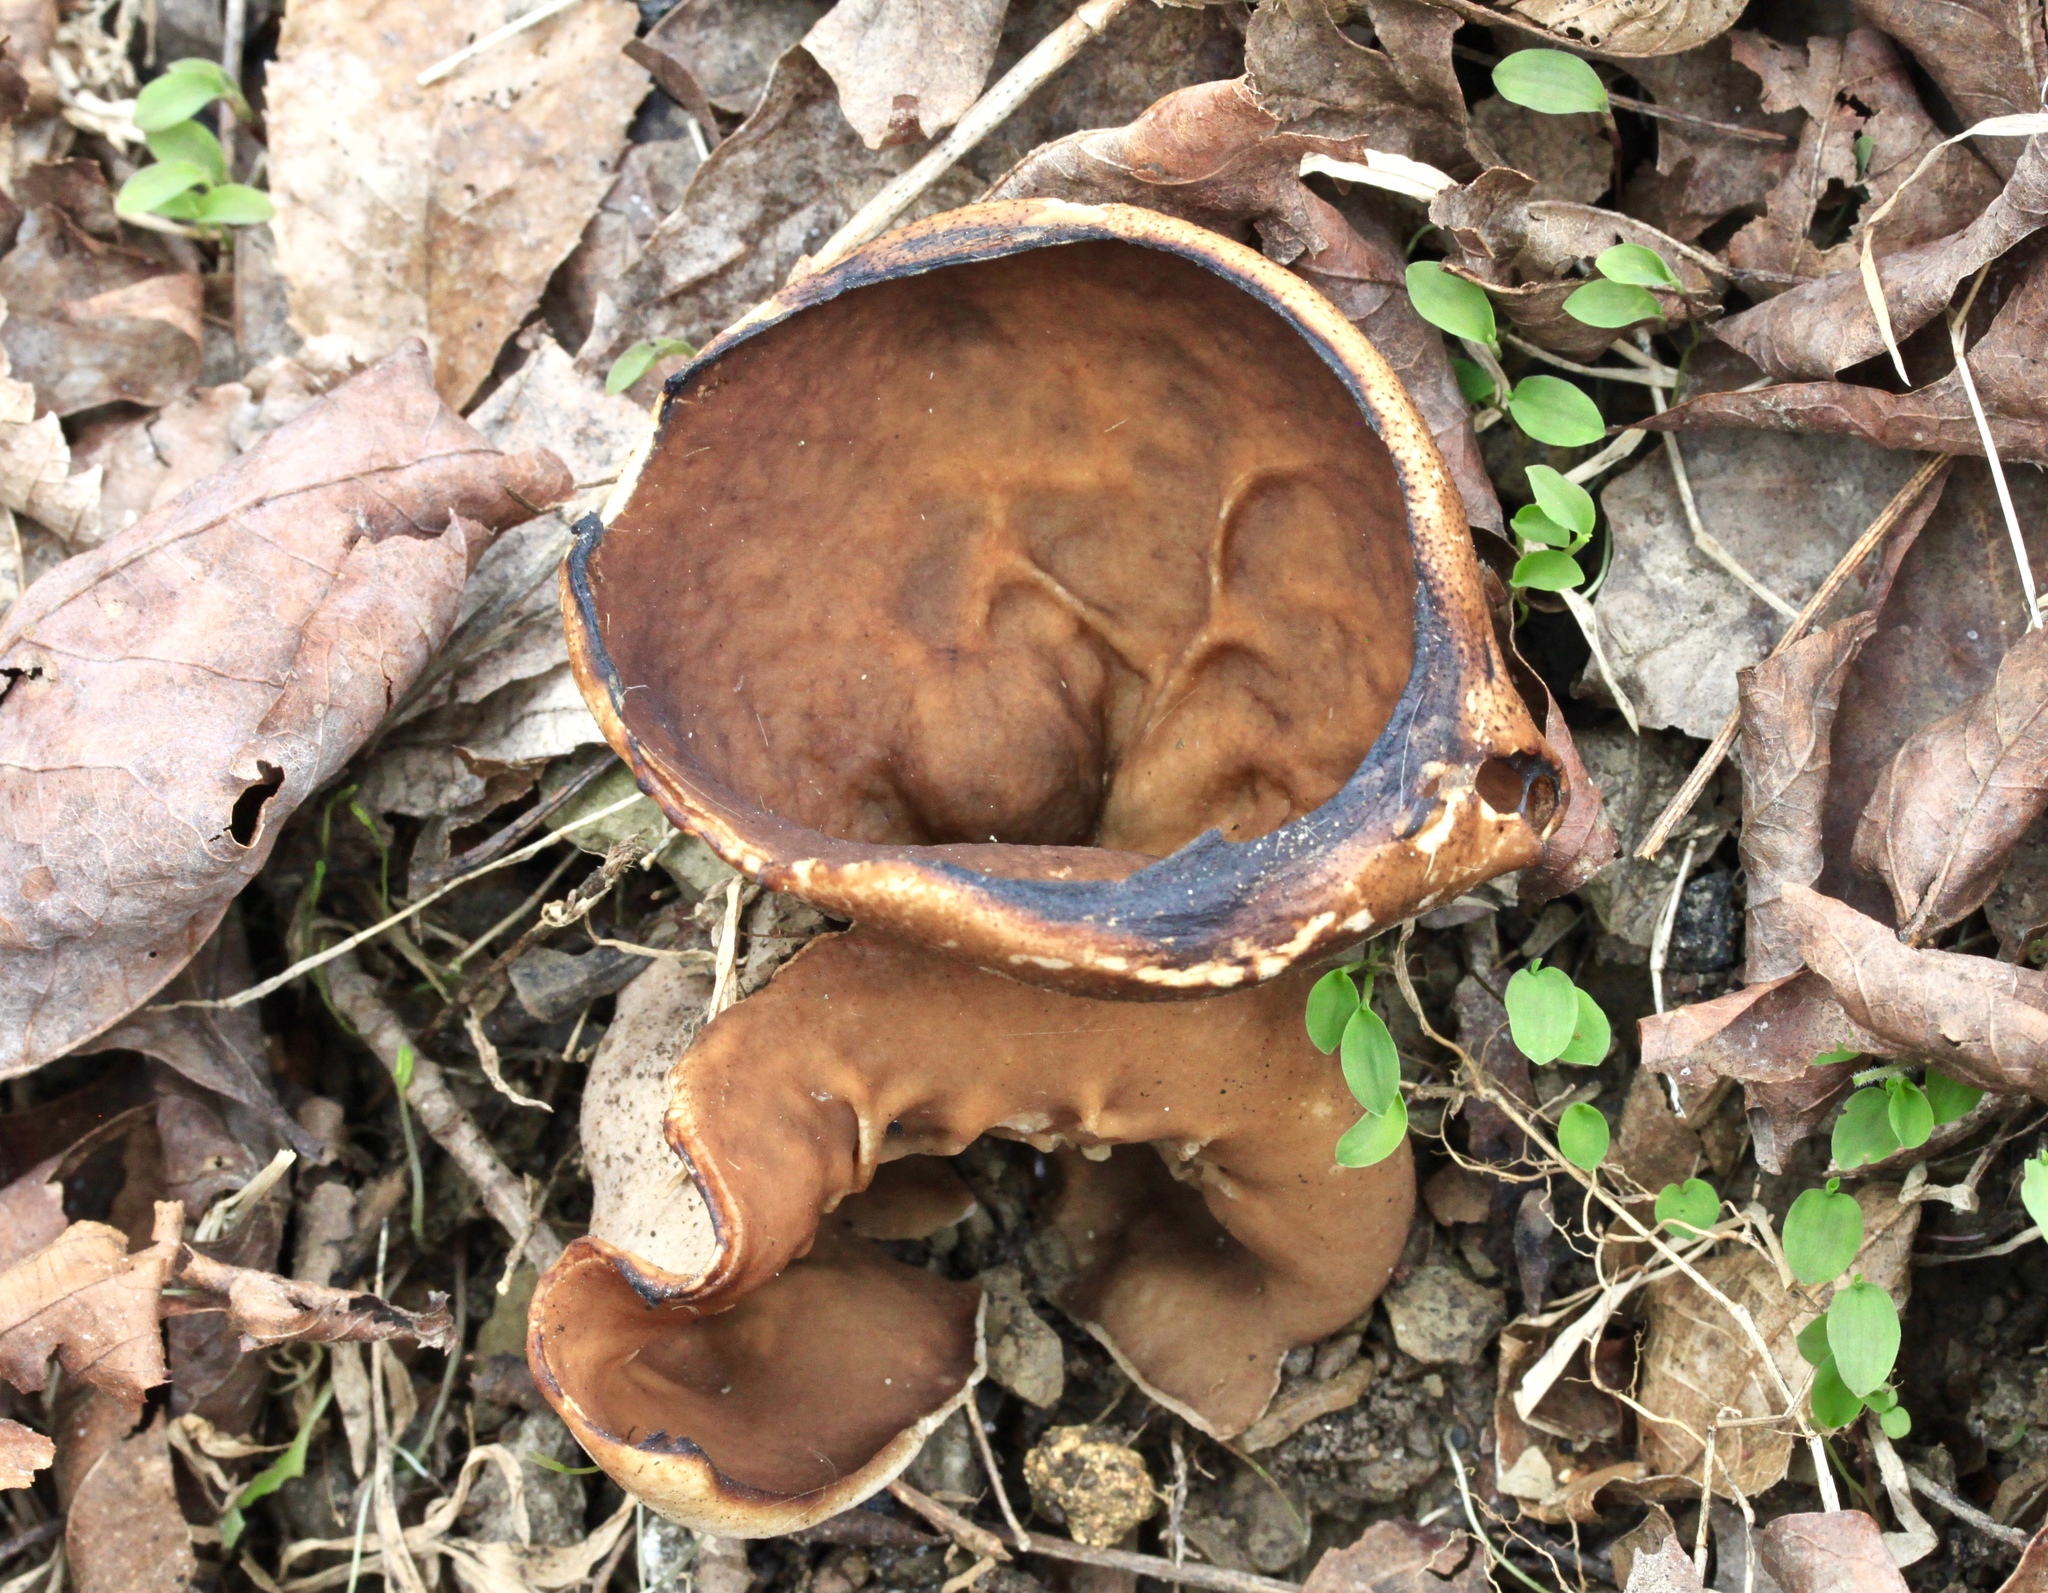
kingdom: Fungi
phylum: Ascomycota
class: Pezizomycetes
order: Pezizales
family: Morchellaceae
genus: Disciotis
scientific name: Disciotis venosa
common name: Bleach cup
